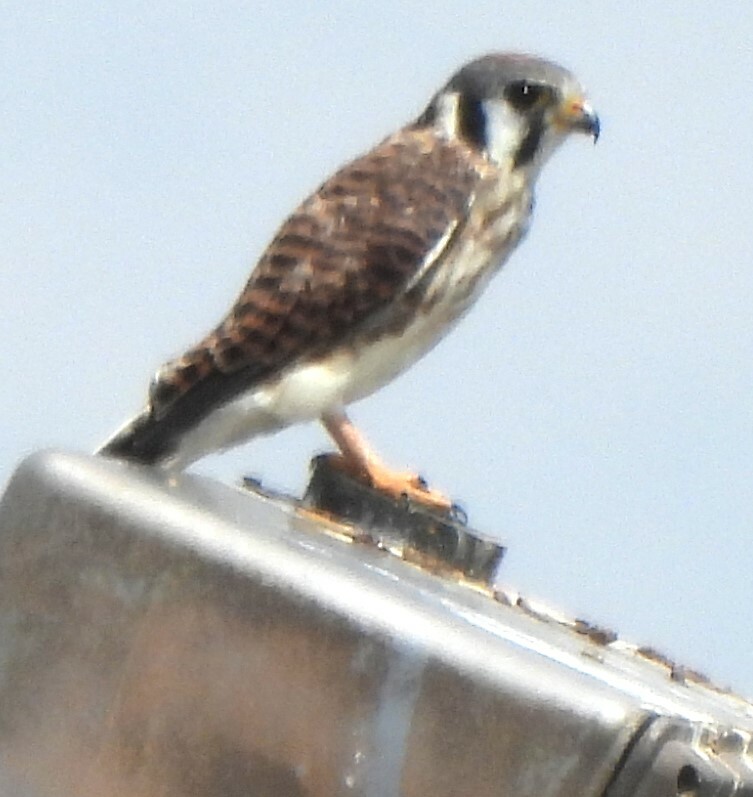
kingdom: Animalia
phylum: Chordata
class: Aves
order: Falconiformes
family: Falconidae
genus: Falco
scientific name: Falco sparverius
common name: American kestrel
